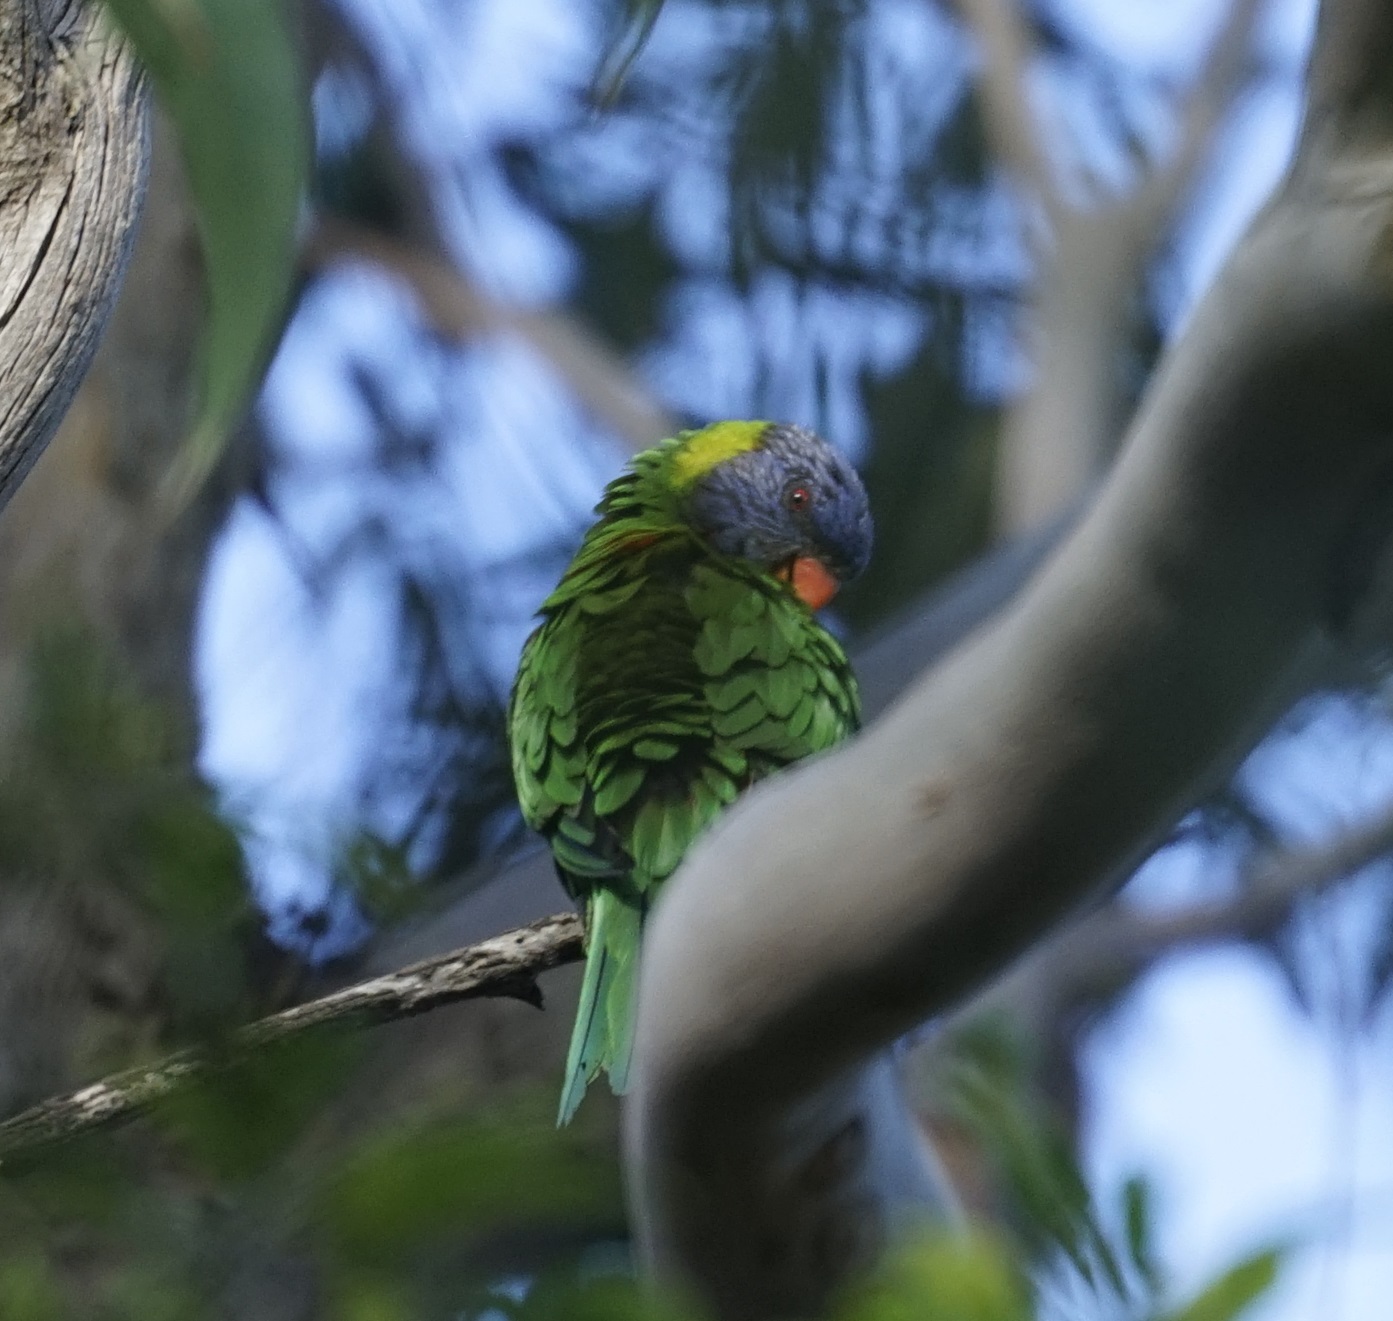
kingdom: Animalia
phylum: Chordata
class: Aves
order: Psittaciformes
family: Psittacidae
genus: Trichoglossus
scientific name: Trichoglossus haematodus
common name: Coconut lorikeet
